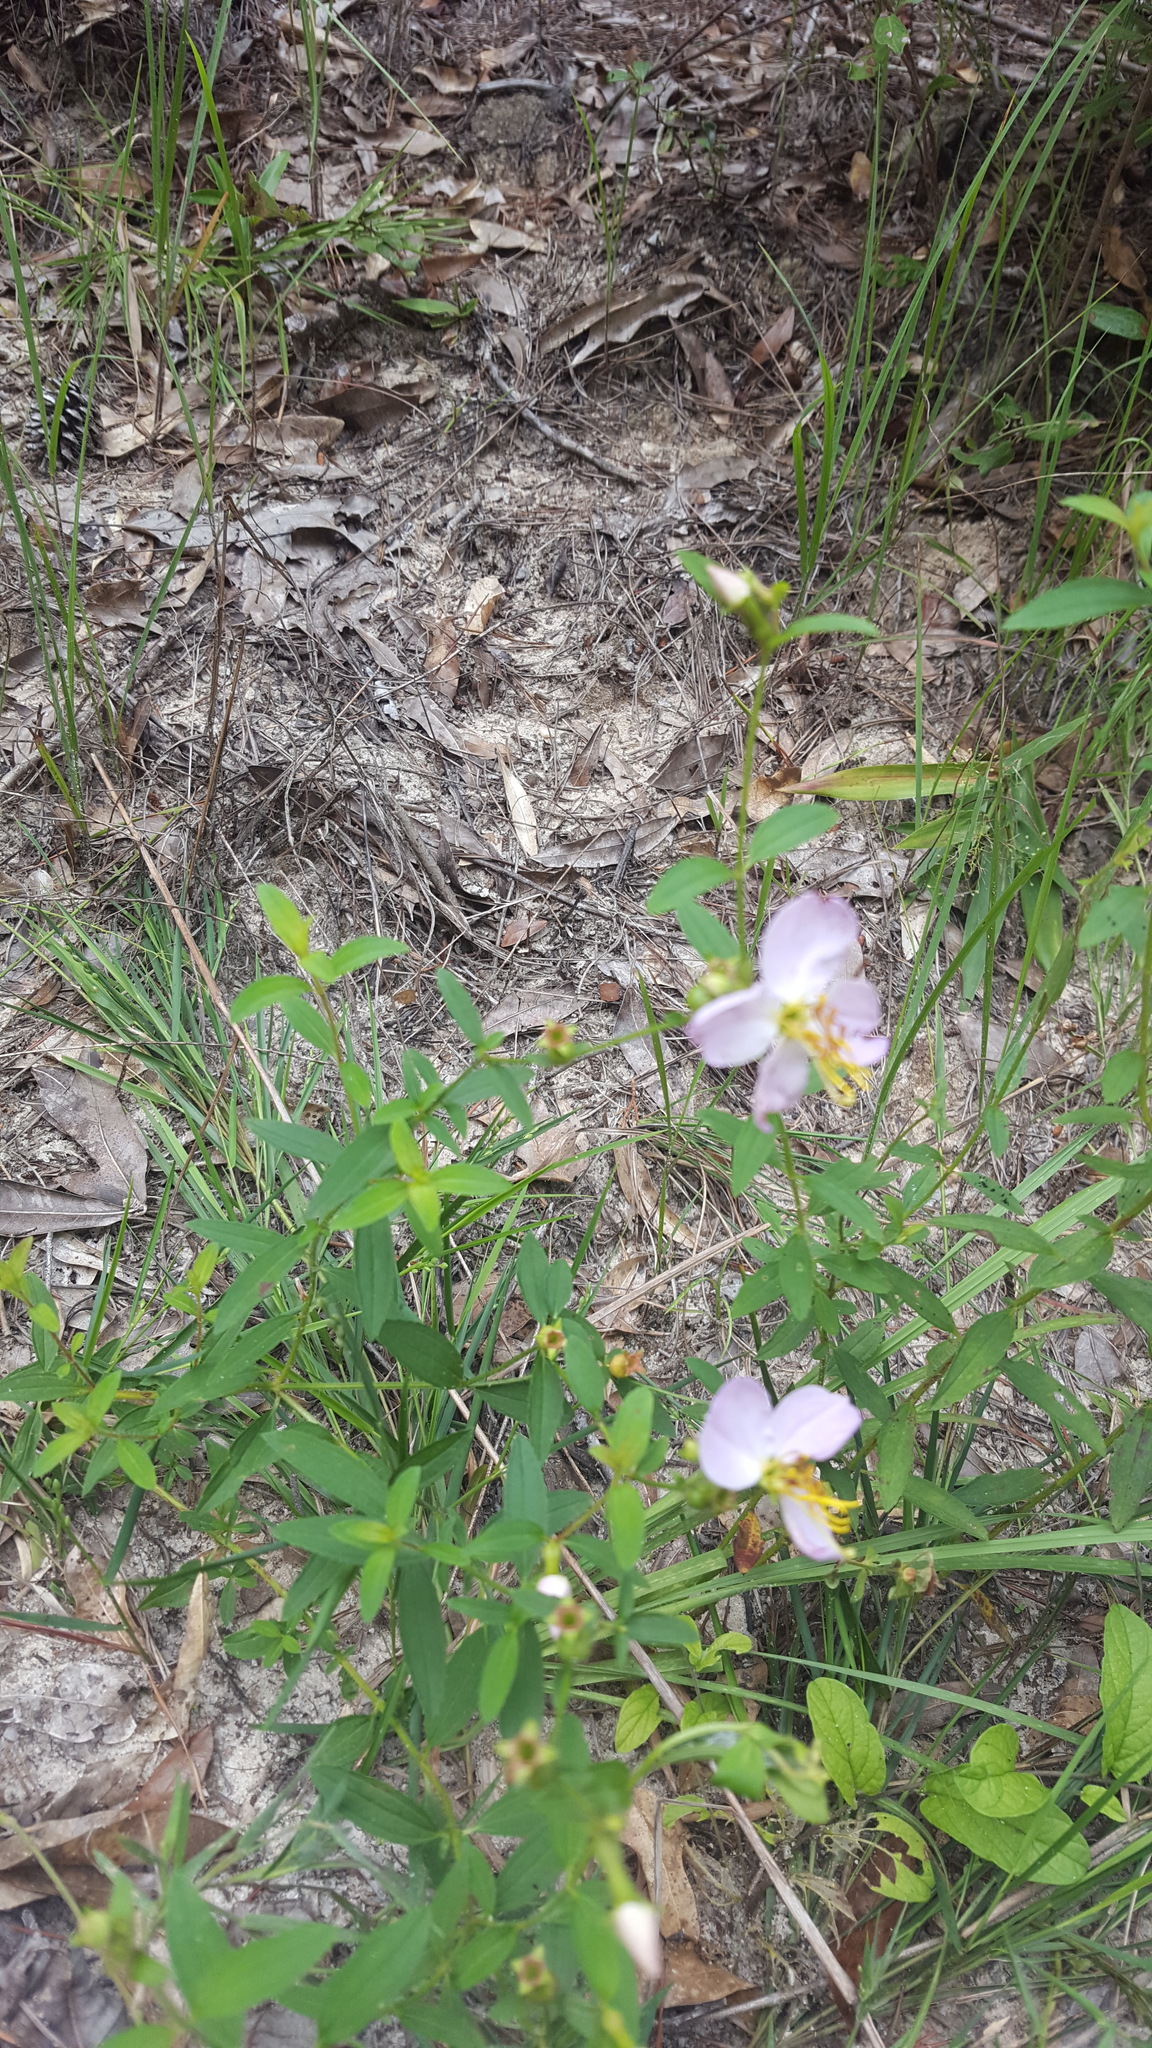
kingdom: Plantae
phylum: Tracheophyta
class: Magnoliopsida
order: Myrtales
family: Melastomataceae
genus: Rhexia
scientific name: Rhexia mariana
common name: Dull meadow-pitcher
